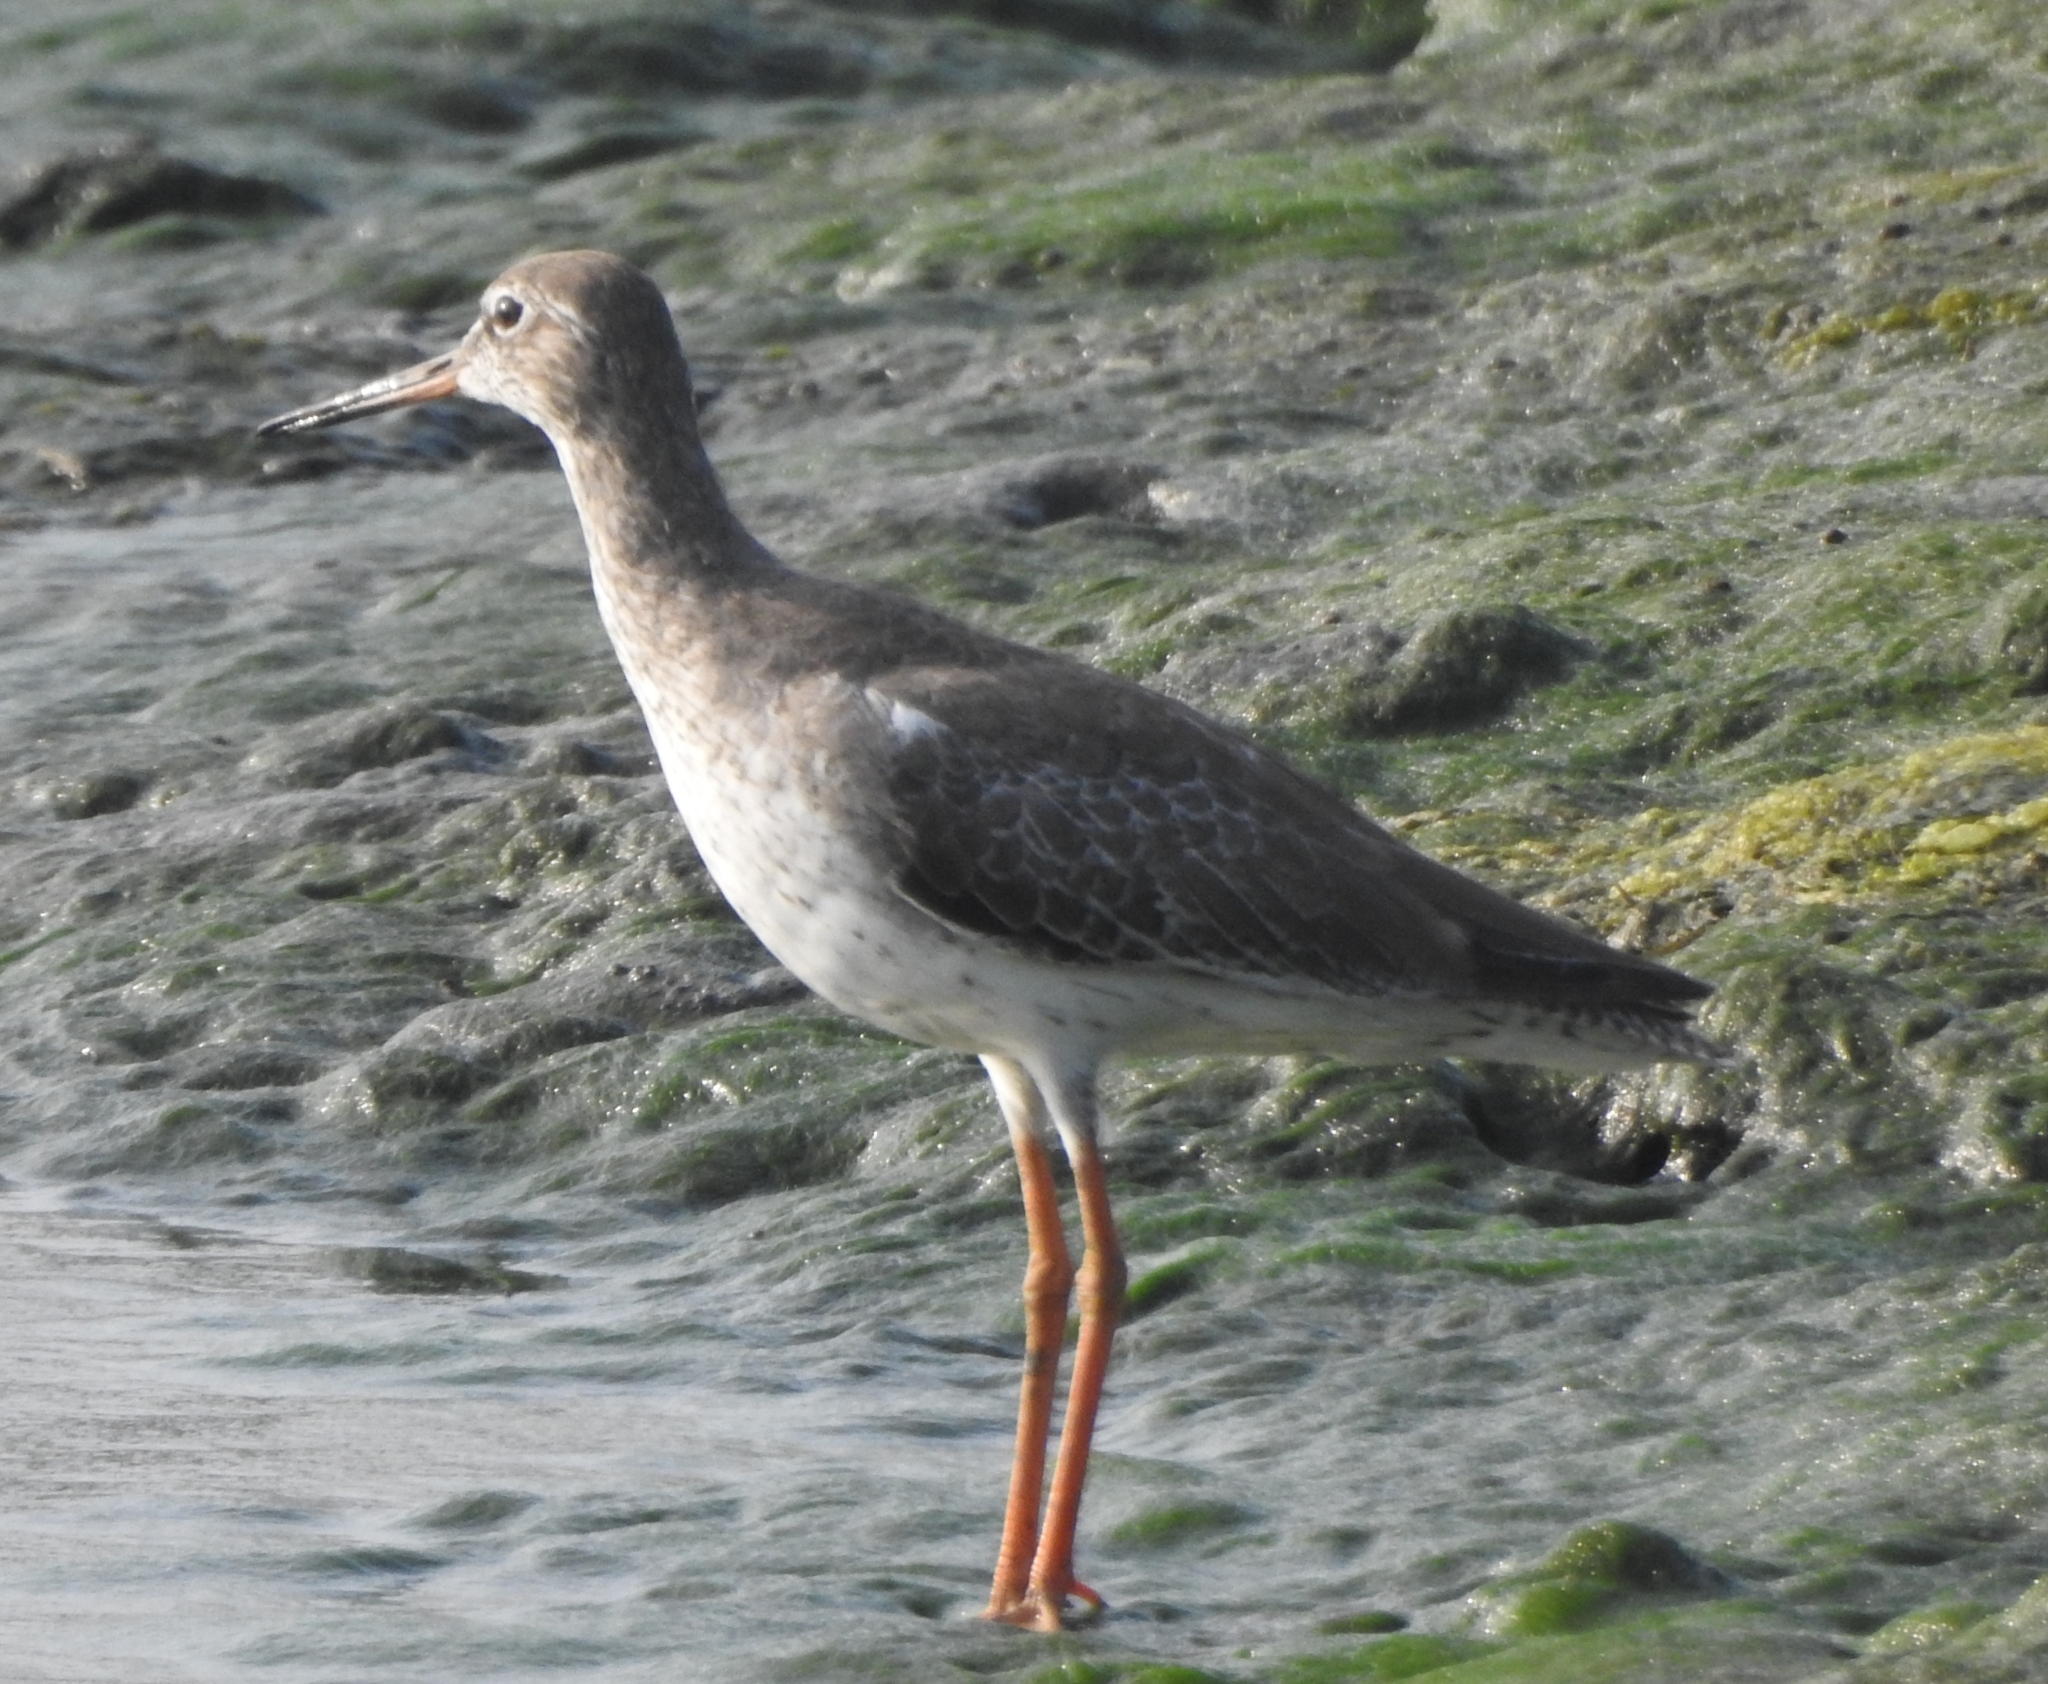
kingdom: Animalia
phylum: Chordata
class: Aves
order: Charadriiformes
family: Scolopacidae
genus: Tringa
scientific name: Tringa totanus
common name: Common redshank
